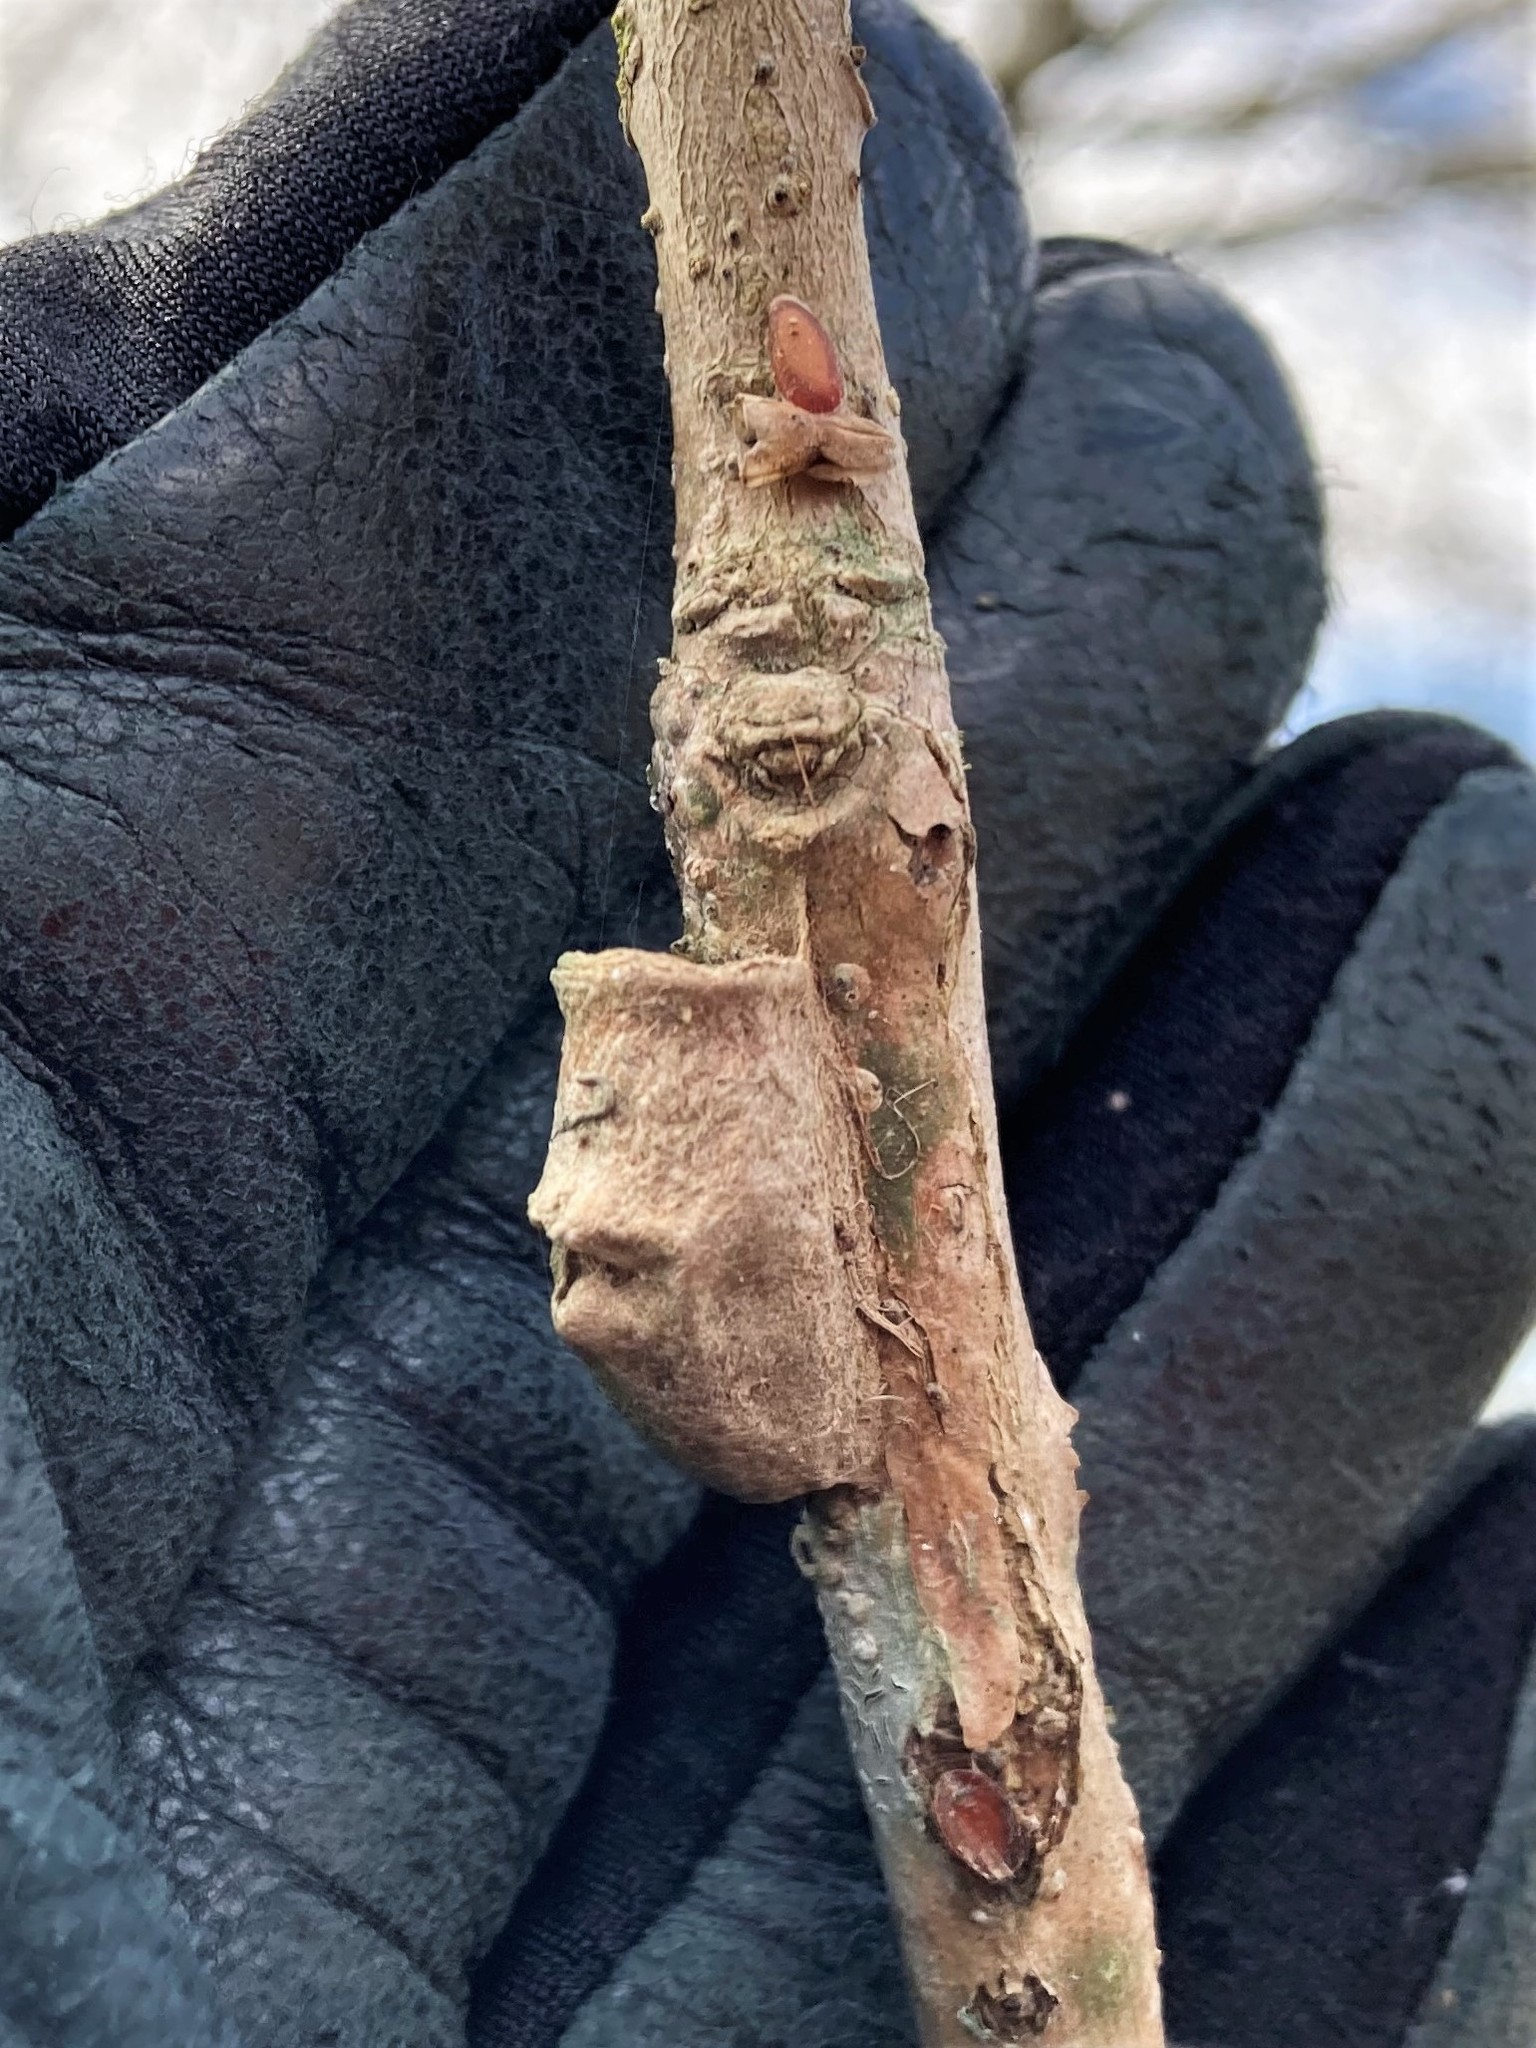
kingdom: Animalia
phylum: Arthropoda
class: Insecta
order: Lepidoptera
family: Megalopygidae
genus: Megalopyge
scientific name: Megalopyge opercularis
